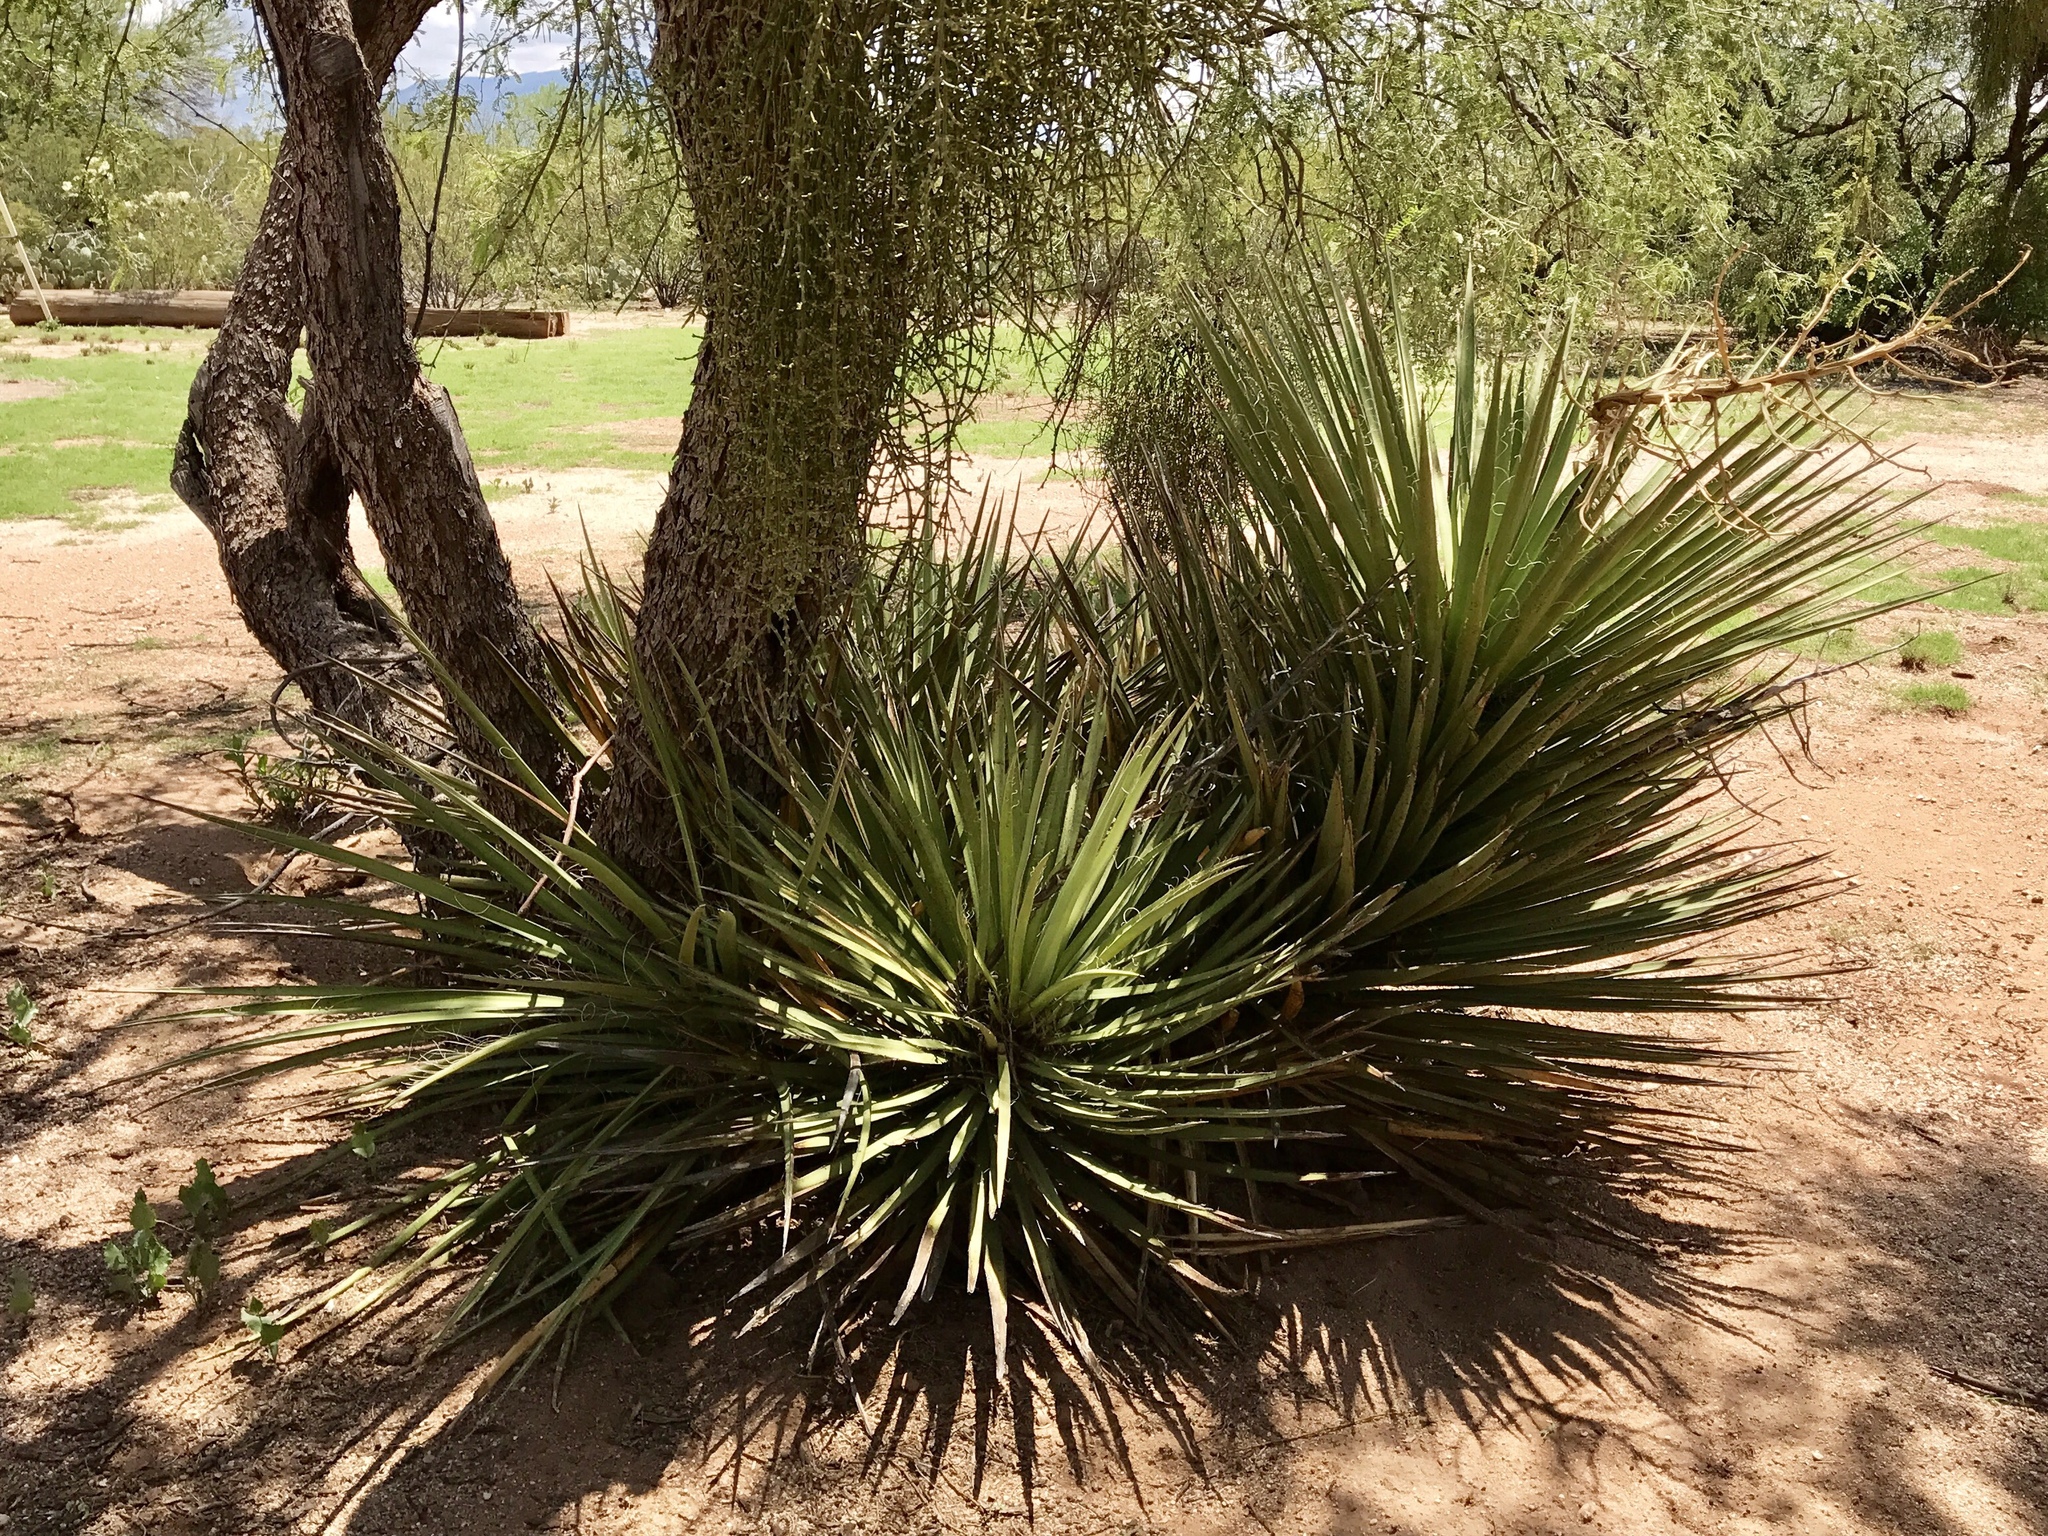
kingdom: Plantae
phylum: Tracheophyta
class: Liliopsida
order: Asparagales
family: Asparagaceae
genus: Yucca
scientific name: Yucca baccata
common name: Banana yucca
